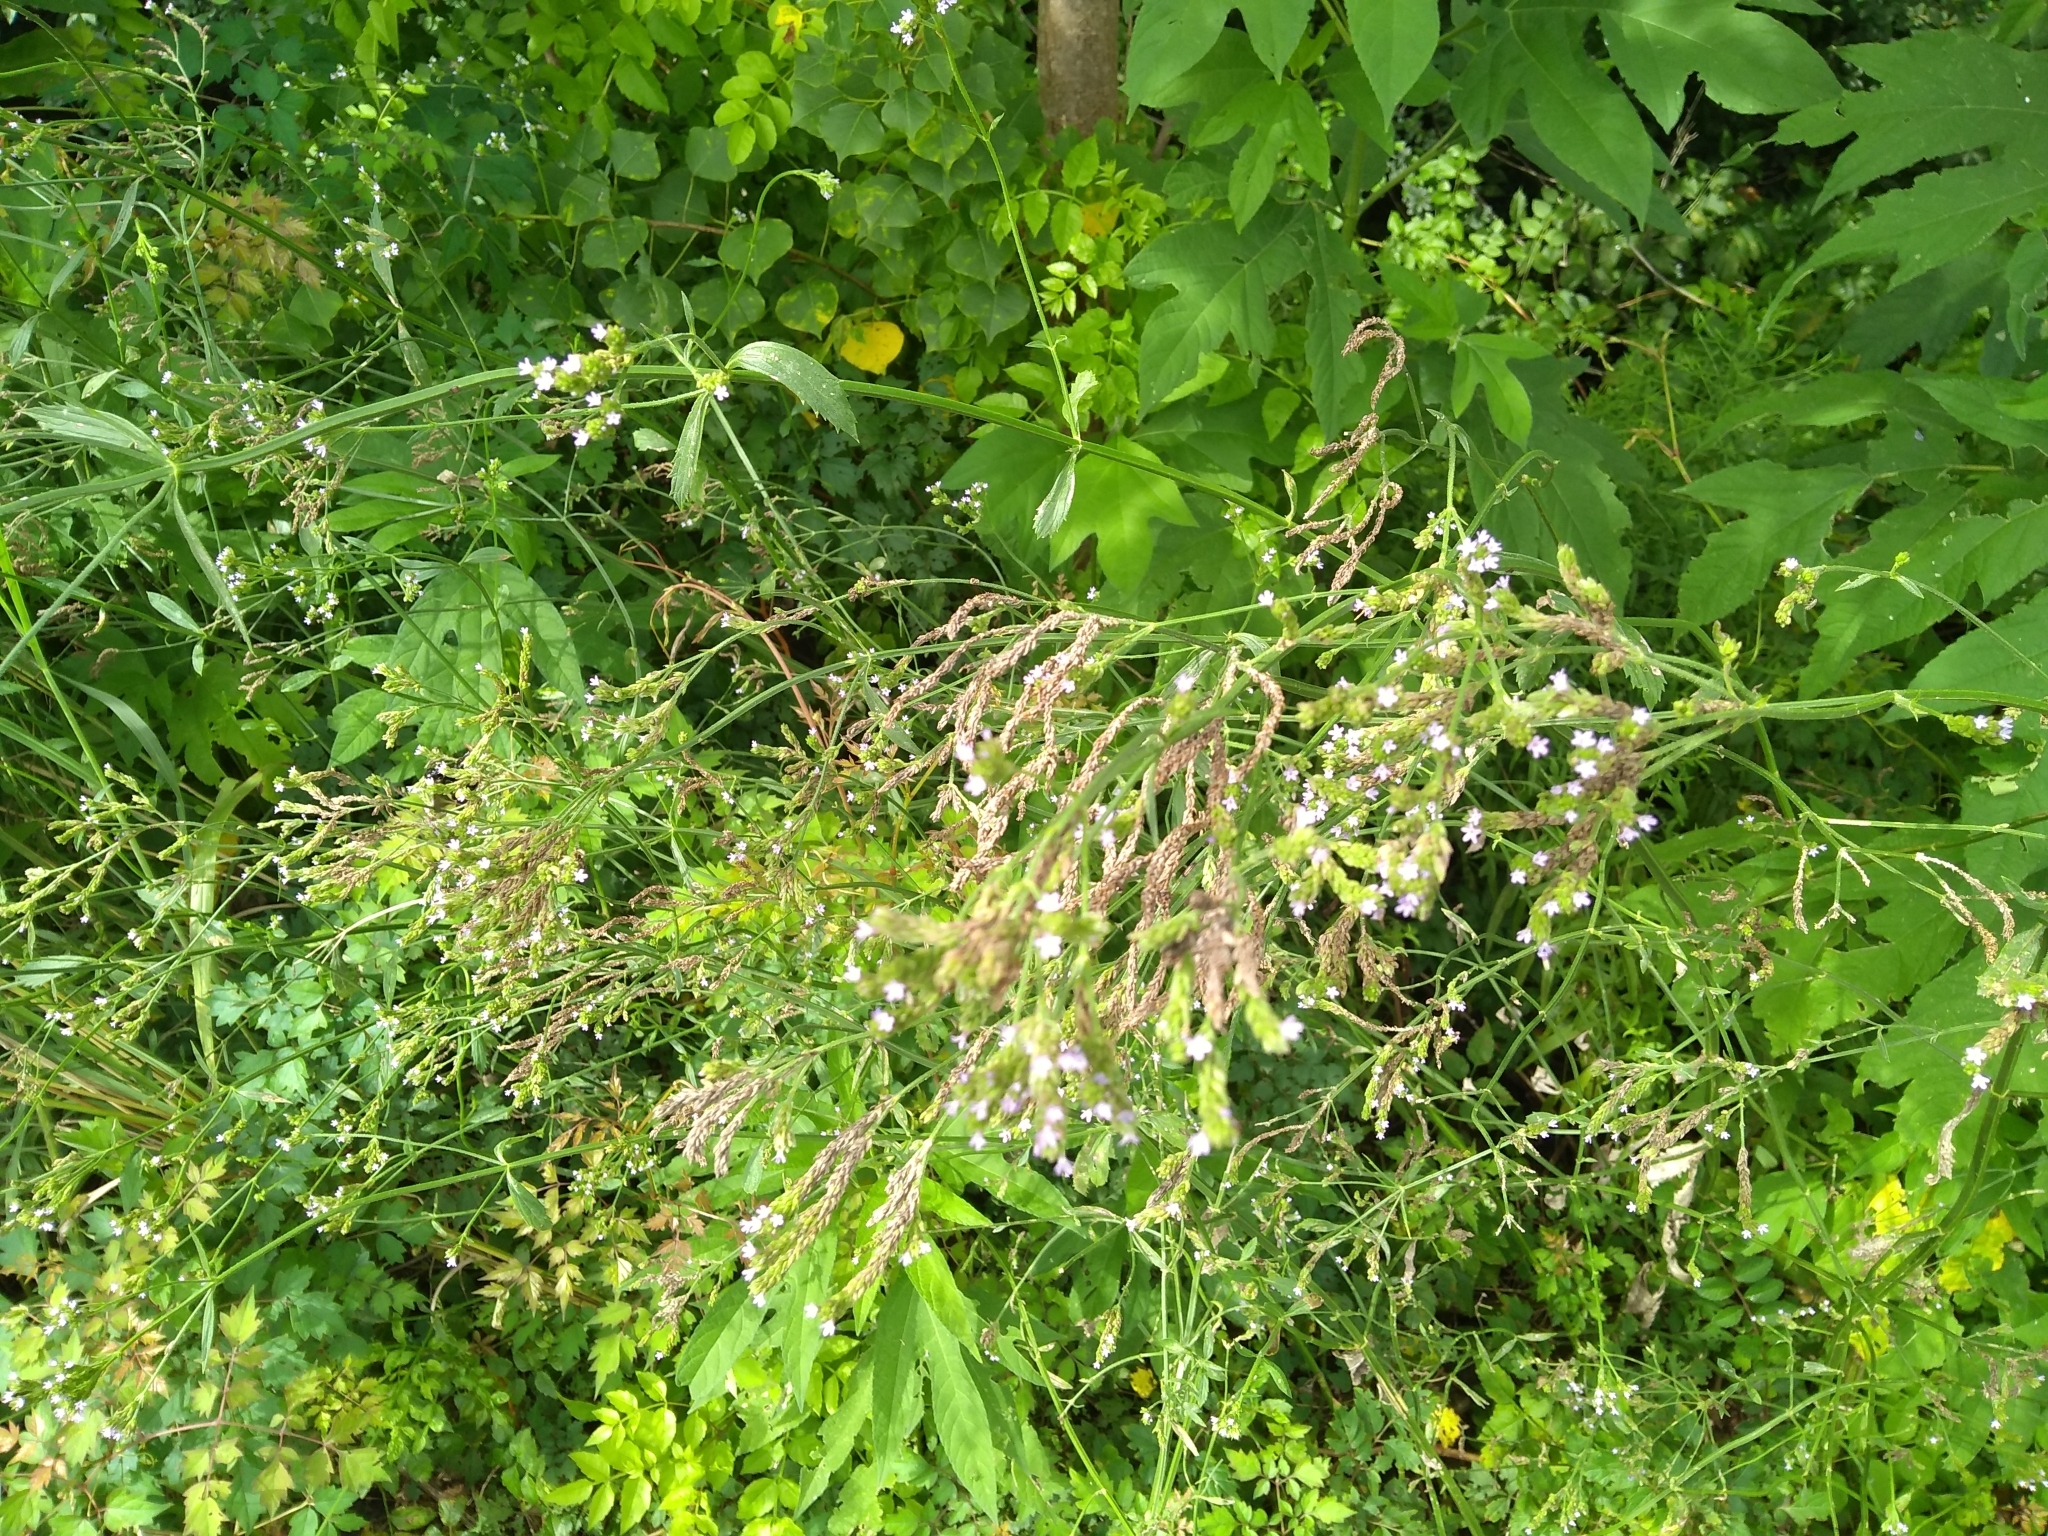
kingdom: Plantae
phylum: Tracheophyta
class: Magnoliopsida
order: Lamiales
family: Verbenaceae
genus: Verbena
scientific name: Verbena brasiliensis
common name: Brazilian vervain
